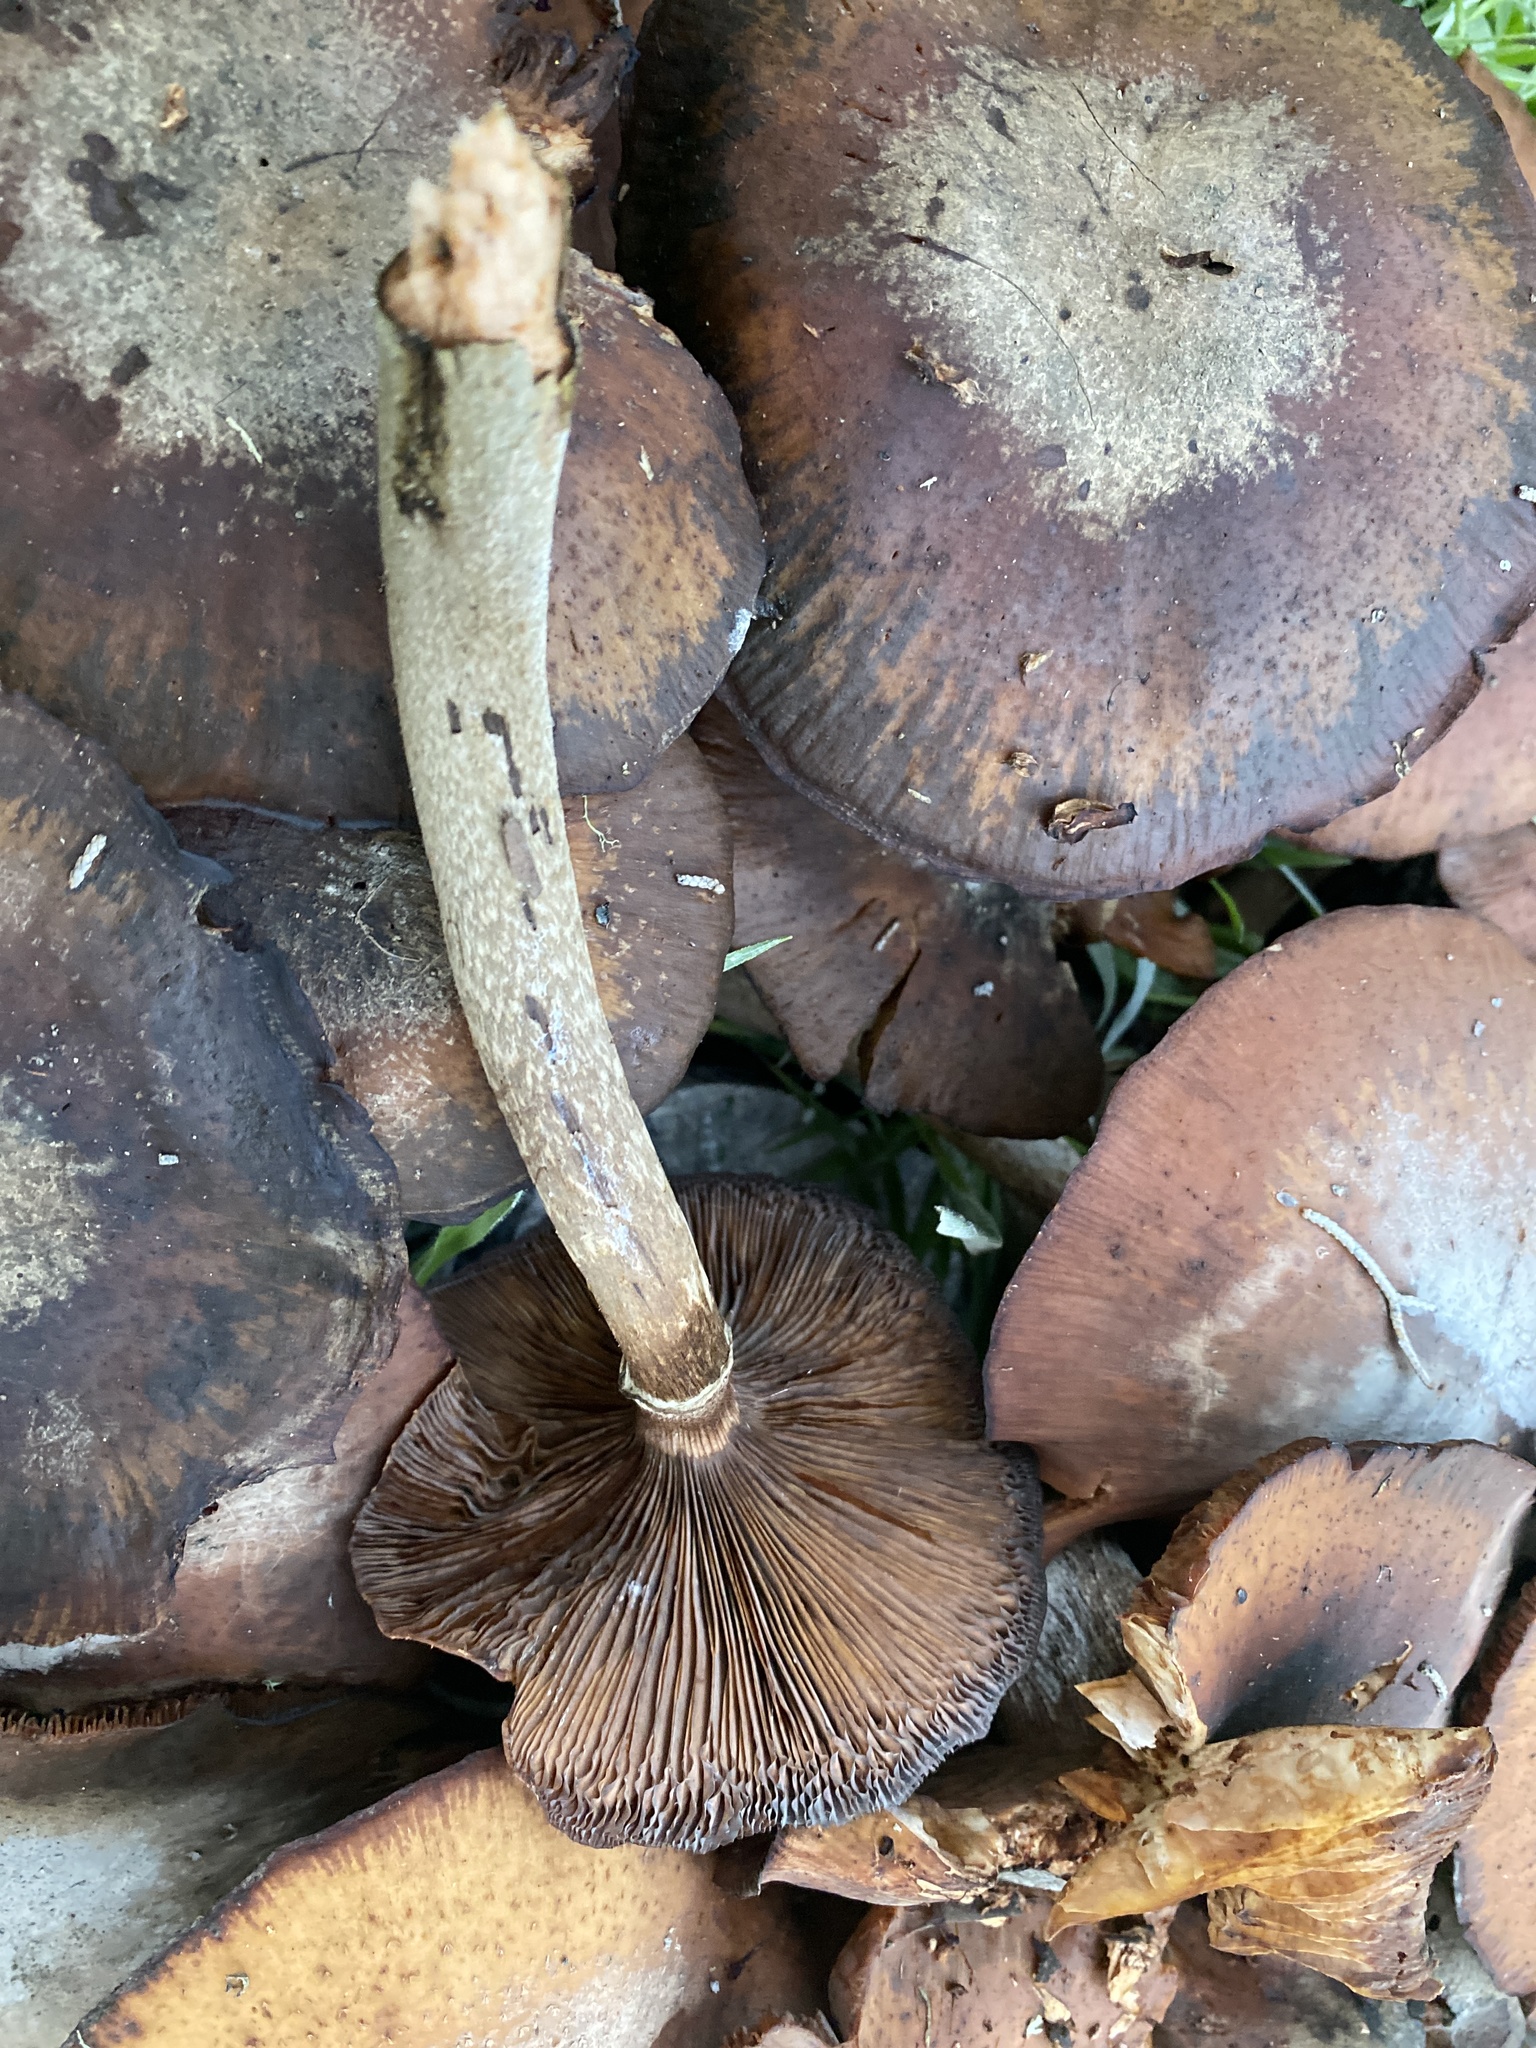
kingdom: Fungi
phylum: Basidiomycota
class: Agaricomycetes
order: Agaricales
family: Physalacriaceae
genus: Armillaria
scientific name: Armillaria mellea
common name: Honey fungus
